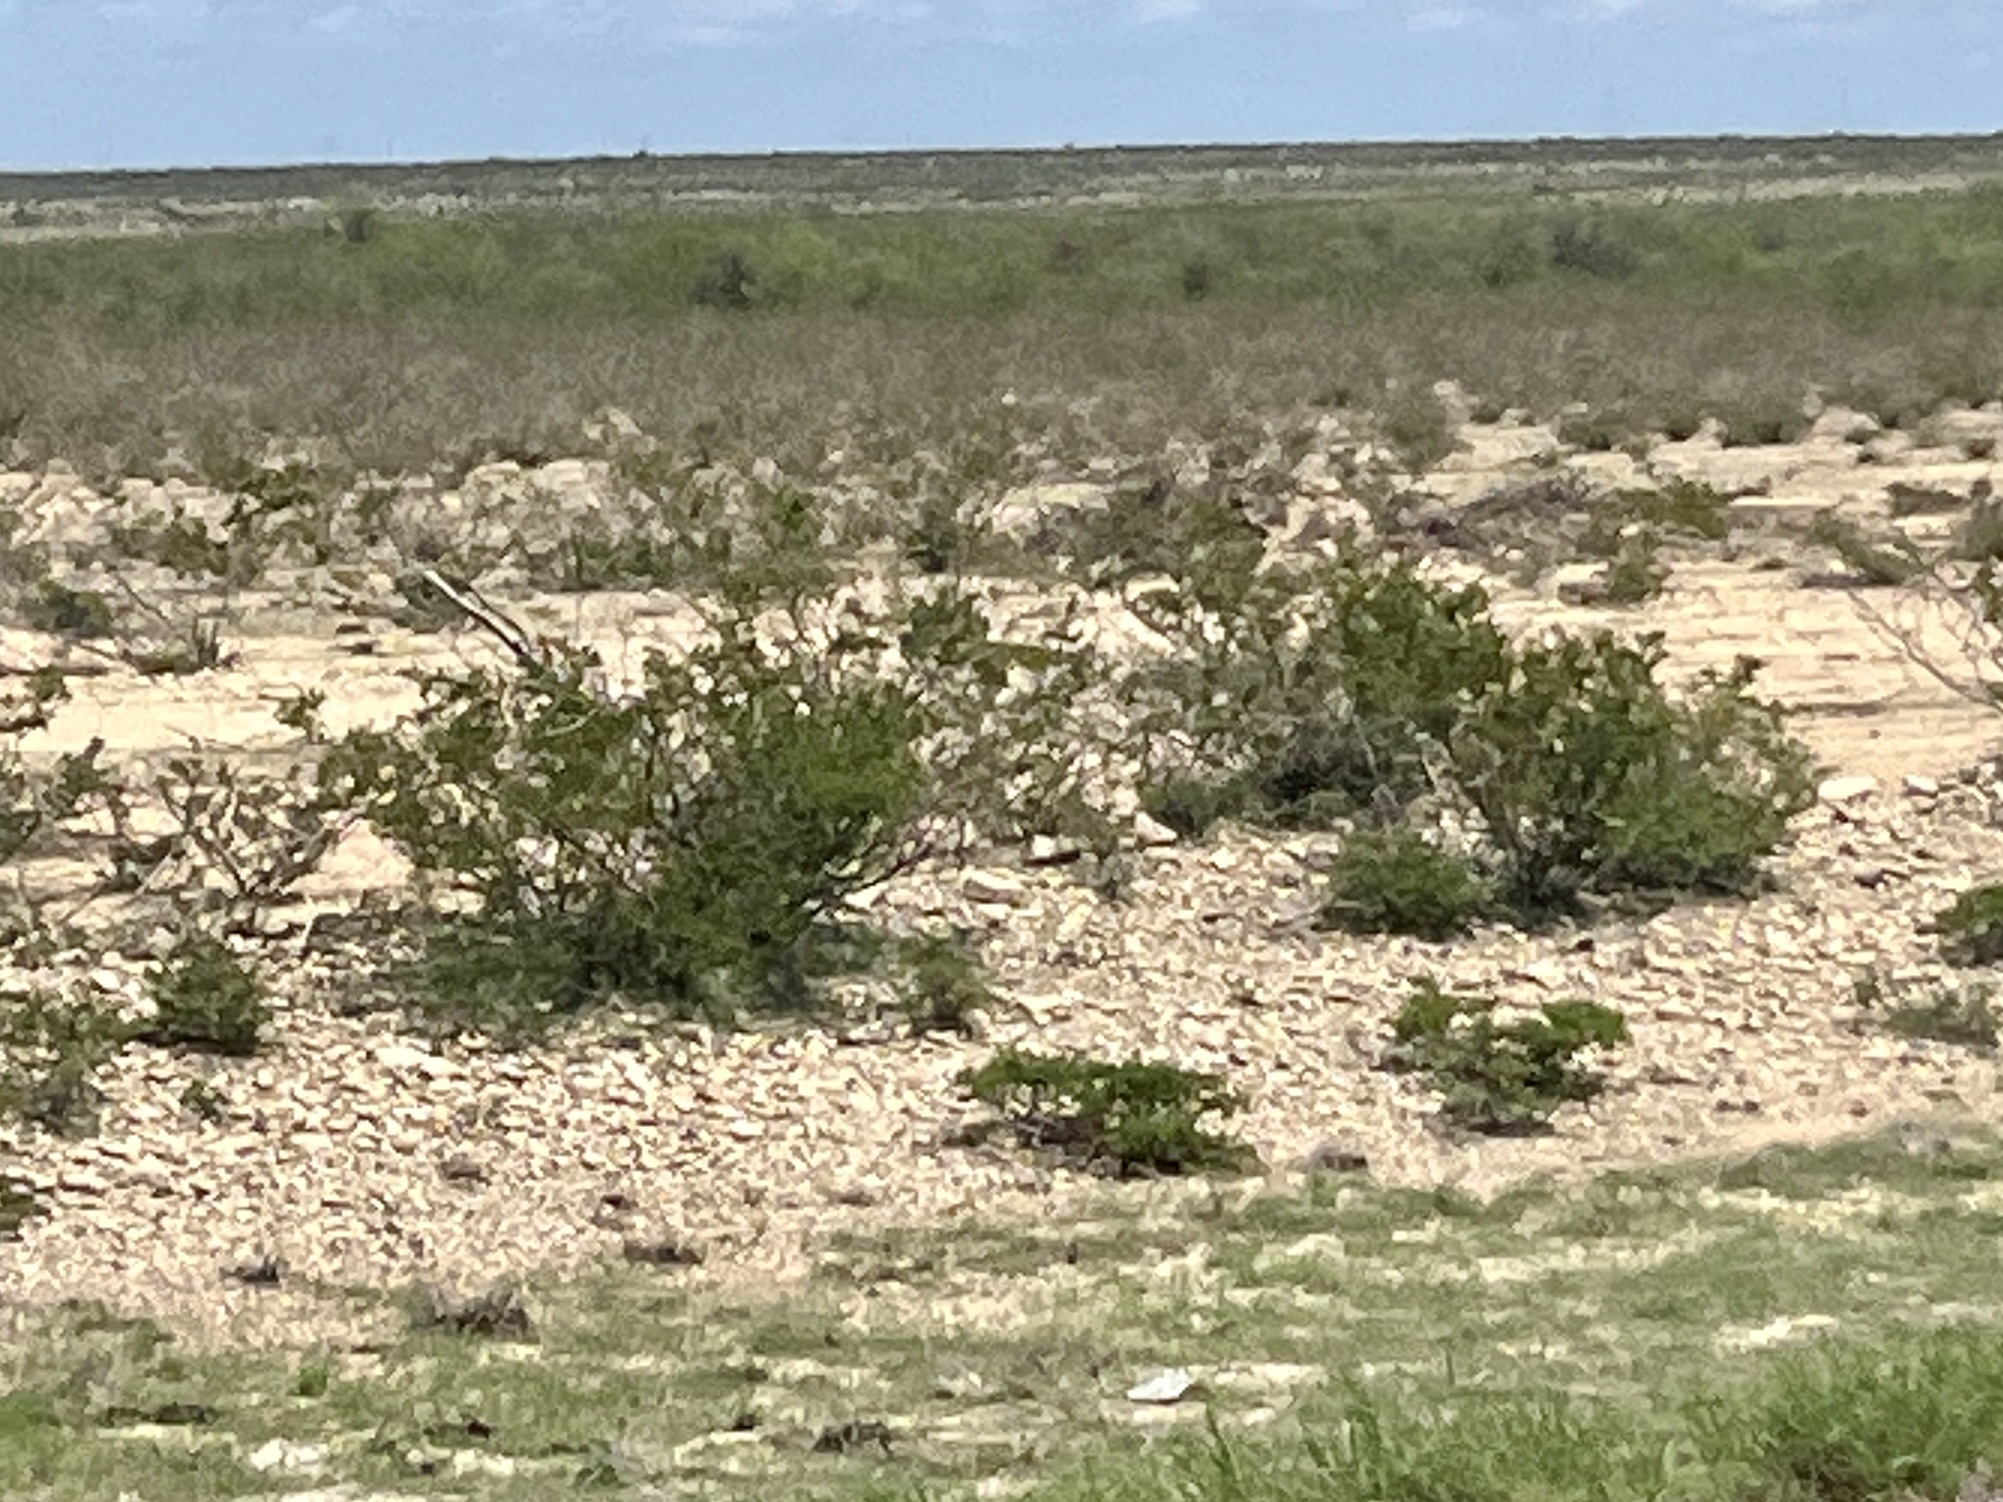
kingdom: Plantae
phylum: Tracheophyta
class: Magnoliopsida
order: Zygophyllales
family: Zygophyllaceae
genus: Larrea
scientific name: Larrea tridentata
